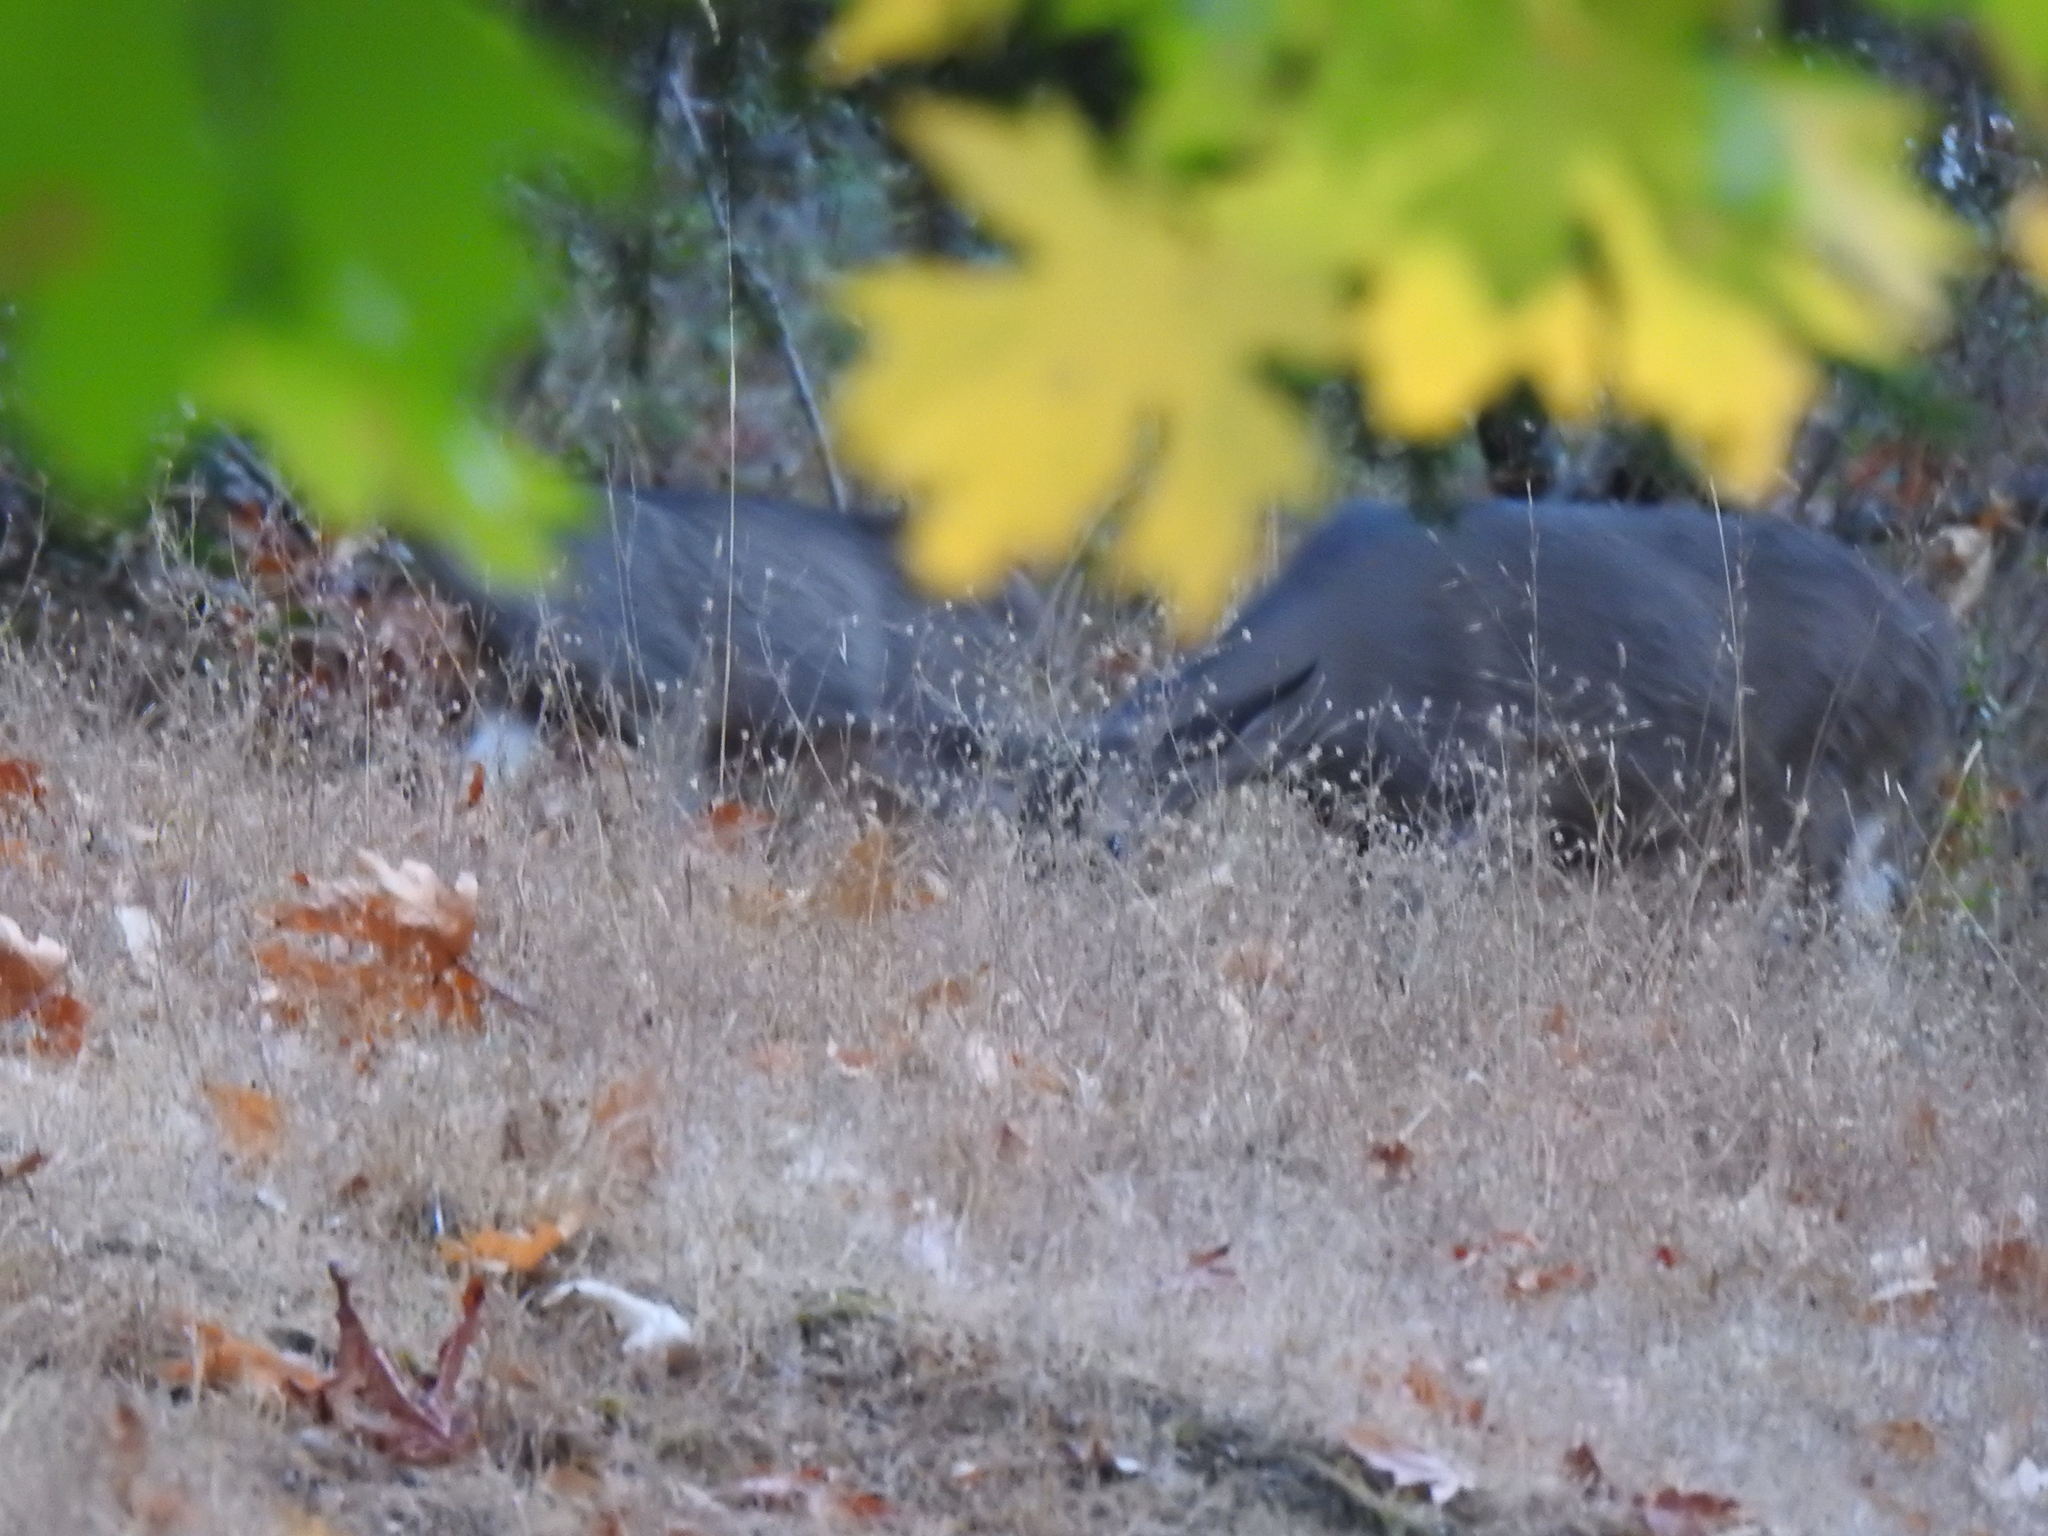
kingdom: Animalia
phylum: Chordata
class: Mammalia
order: Artiodactyla
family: Cervidae
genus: Odocoileus
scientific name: Odocoileus hemionus
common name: Mule deer
